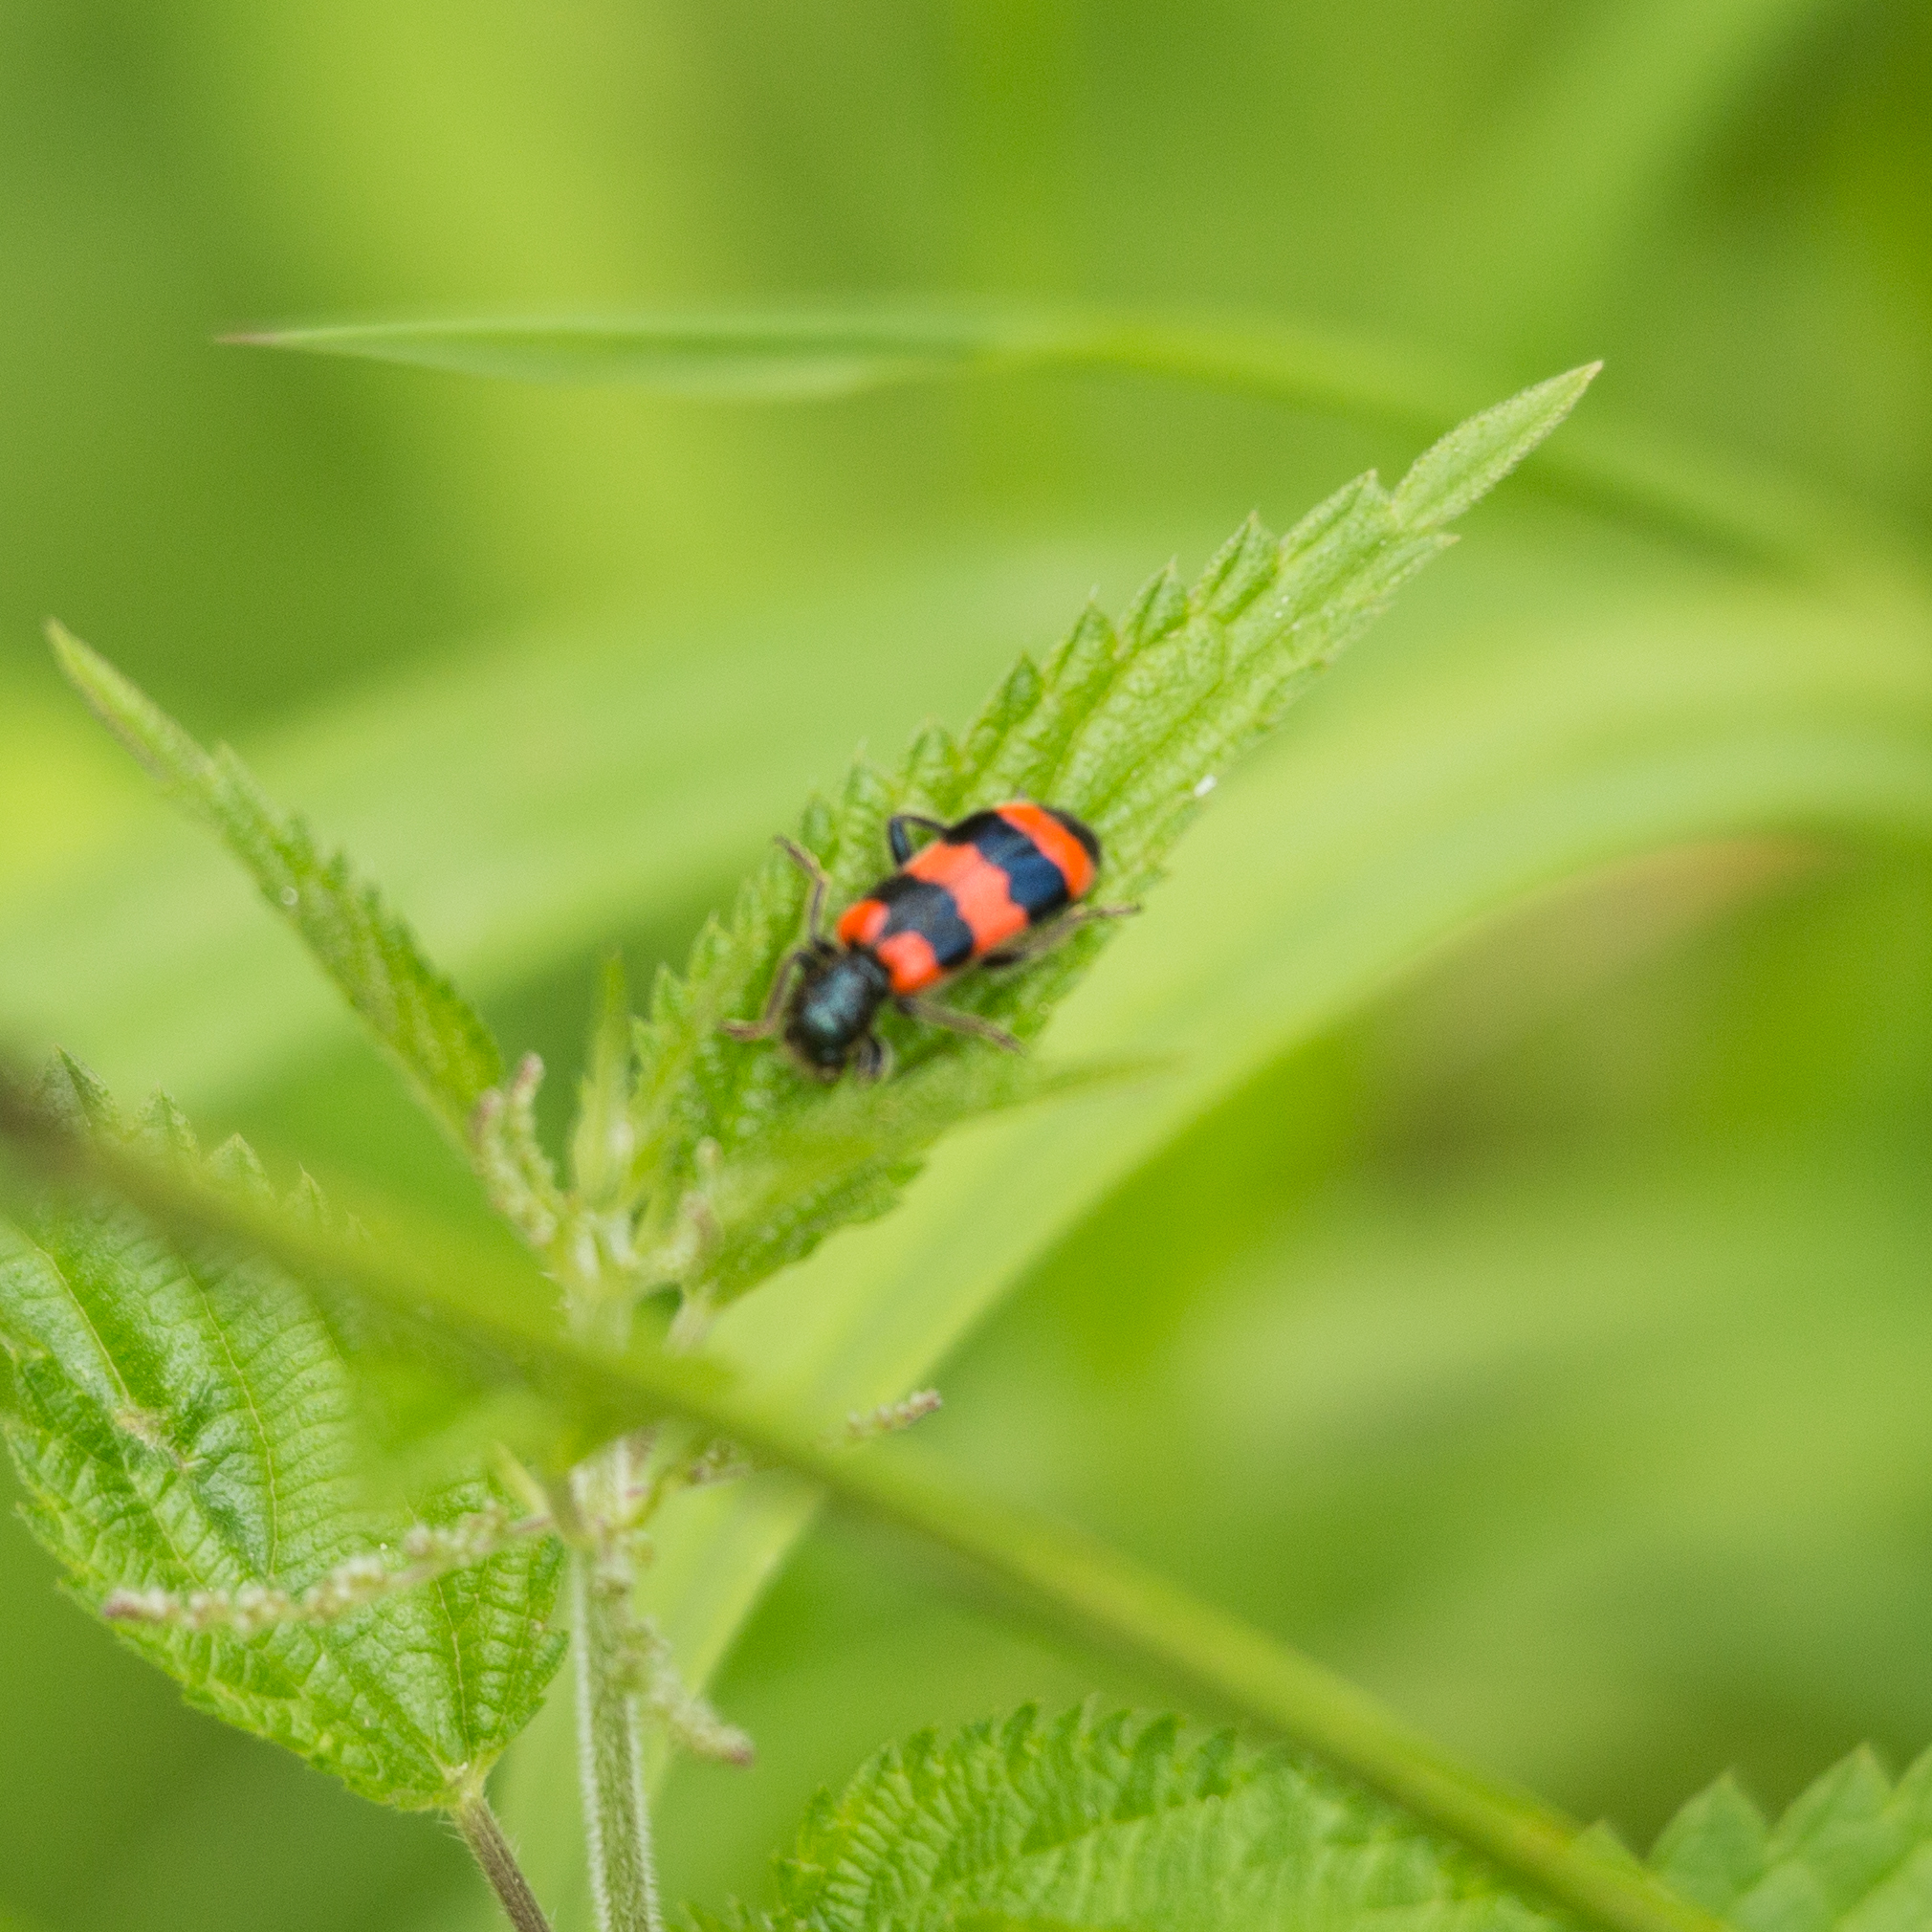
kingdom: Animalia
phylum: Arthropoda
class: Insecta
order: Coleoptera
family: Cleridae
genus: Trichodes
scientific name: Trichodes apiarius
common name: Bee-eating beetle
